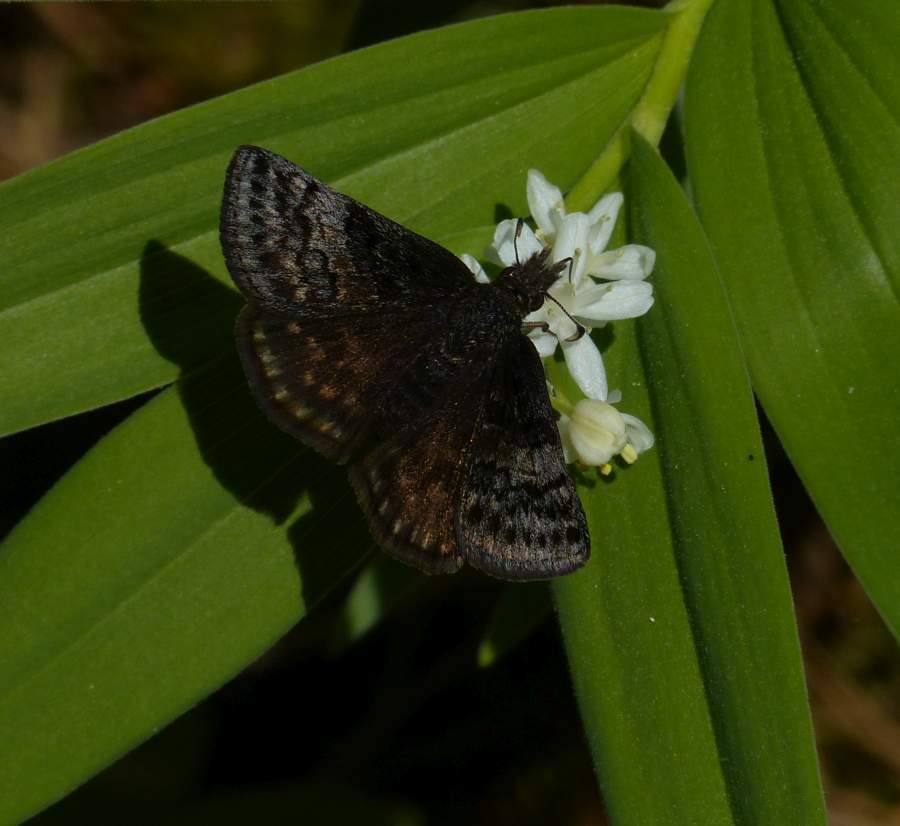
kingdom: Animalia
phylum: Arthropoda
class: Insecta
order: Lepidoptera
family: Hesperiidae
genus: Erynnis
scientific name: Erynnis icelus
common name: Dreamy duskywing
